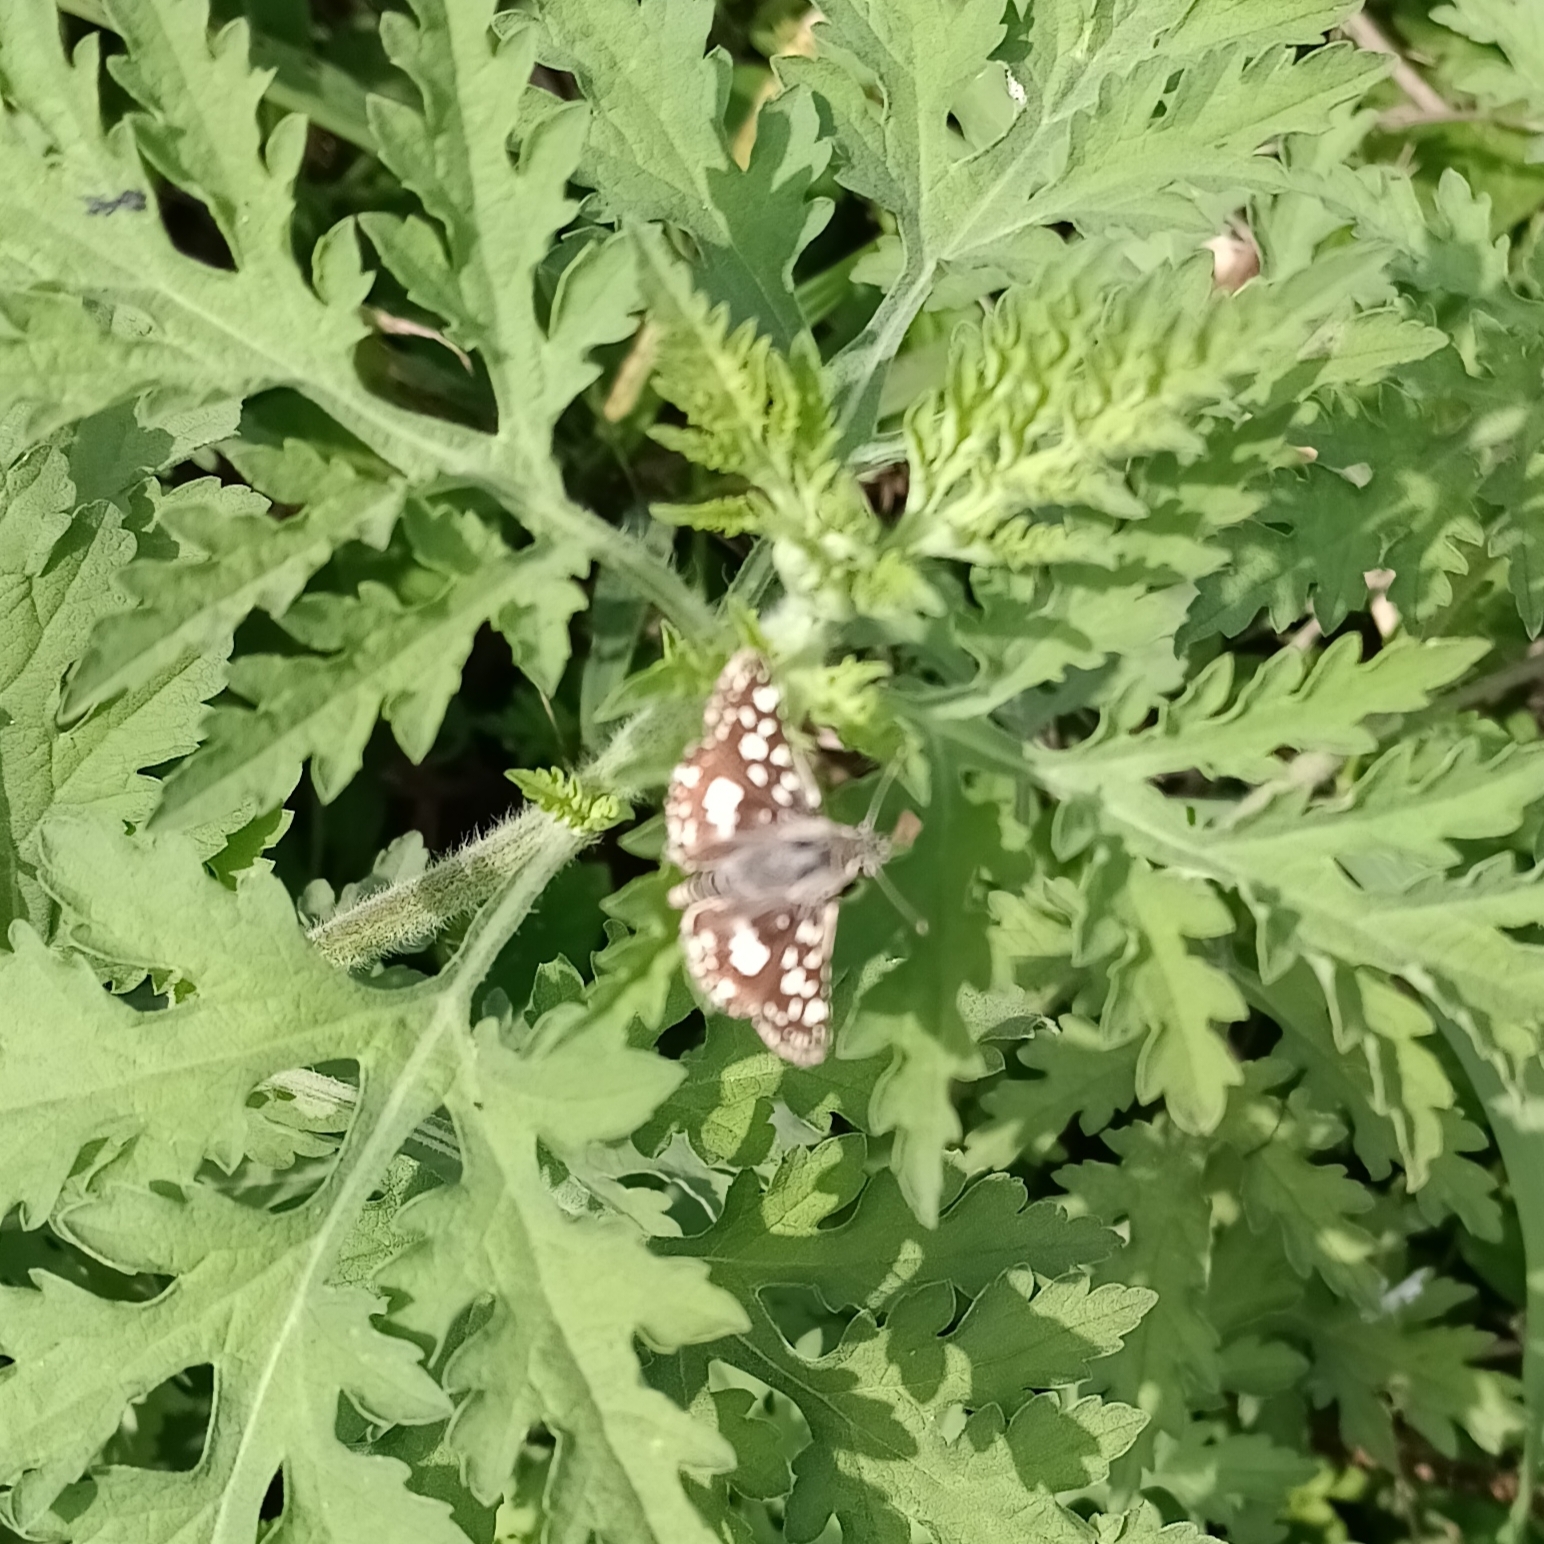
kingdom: Animalia
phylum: Arthropoda
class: Insecta
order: Lepidoptera
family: Hesperiidae
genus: Spialia
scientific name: Spialia spio
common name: Mountain sandman
